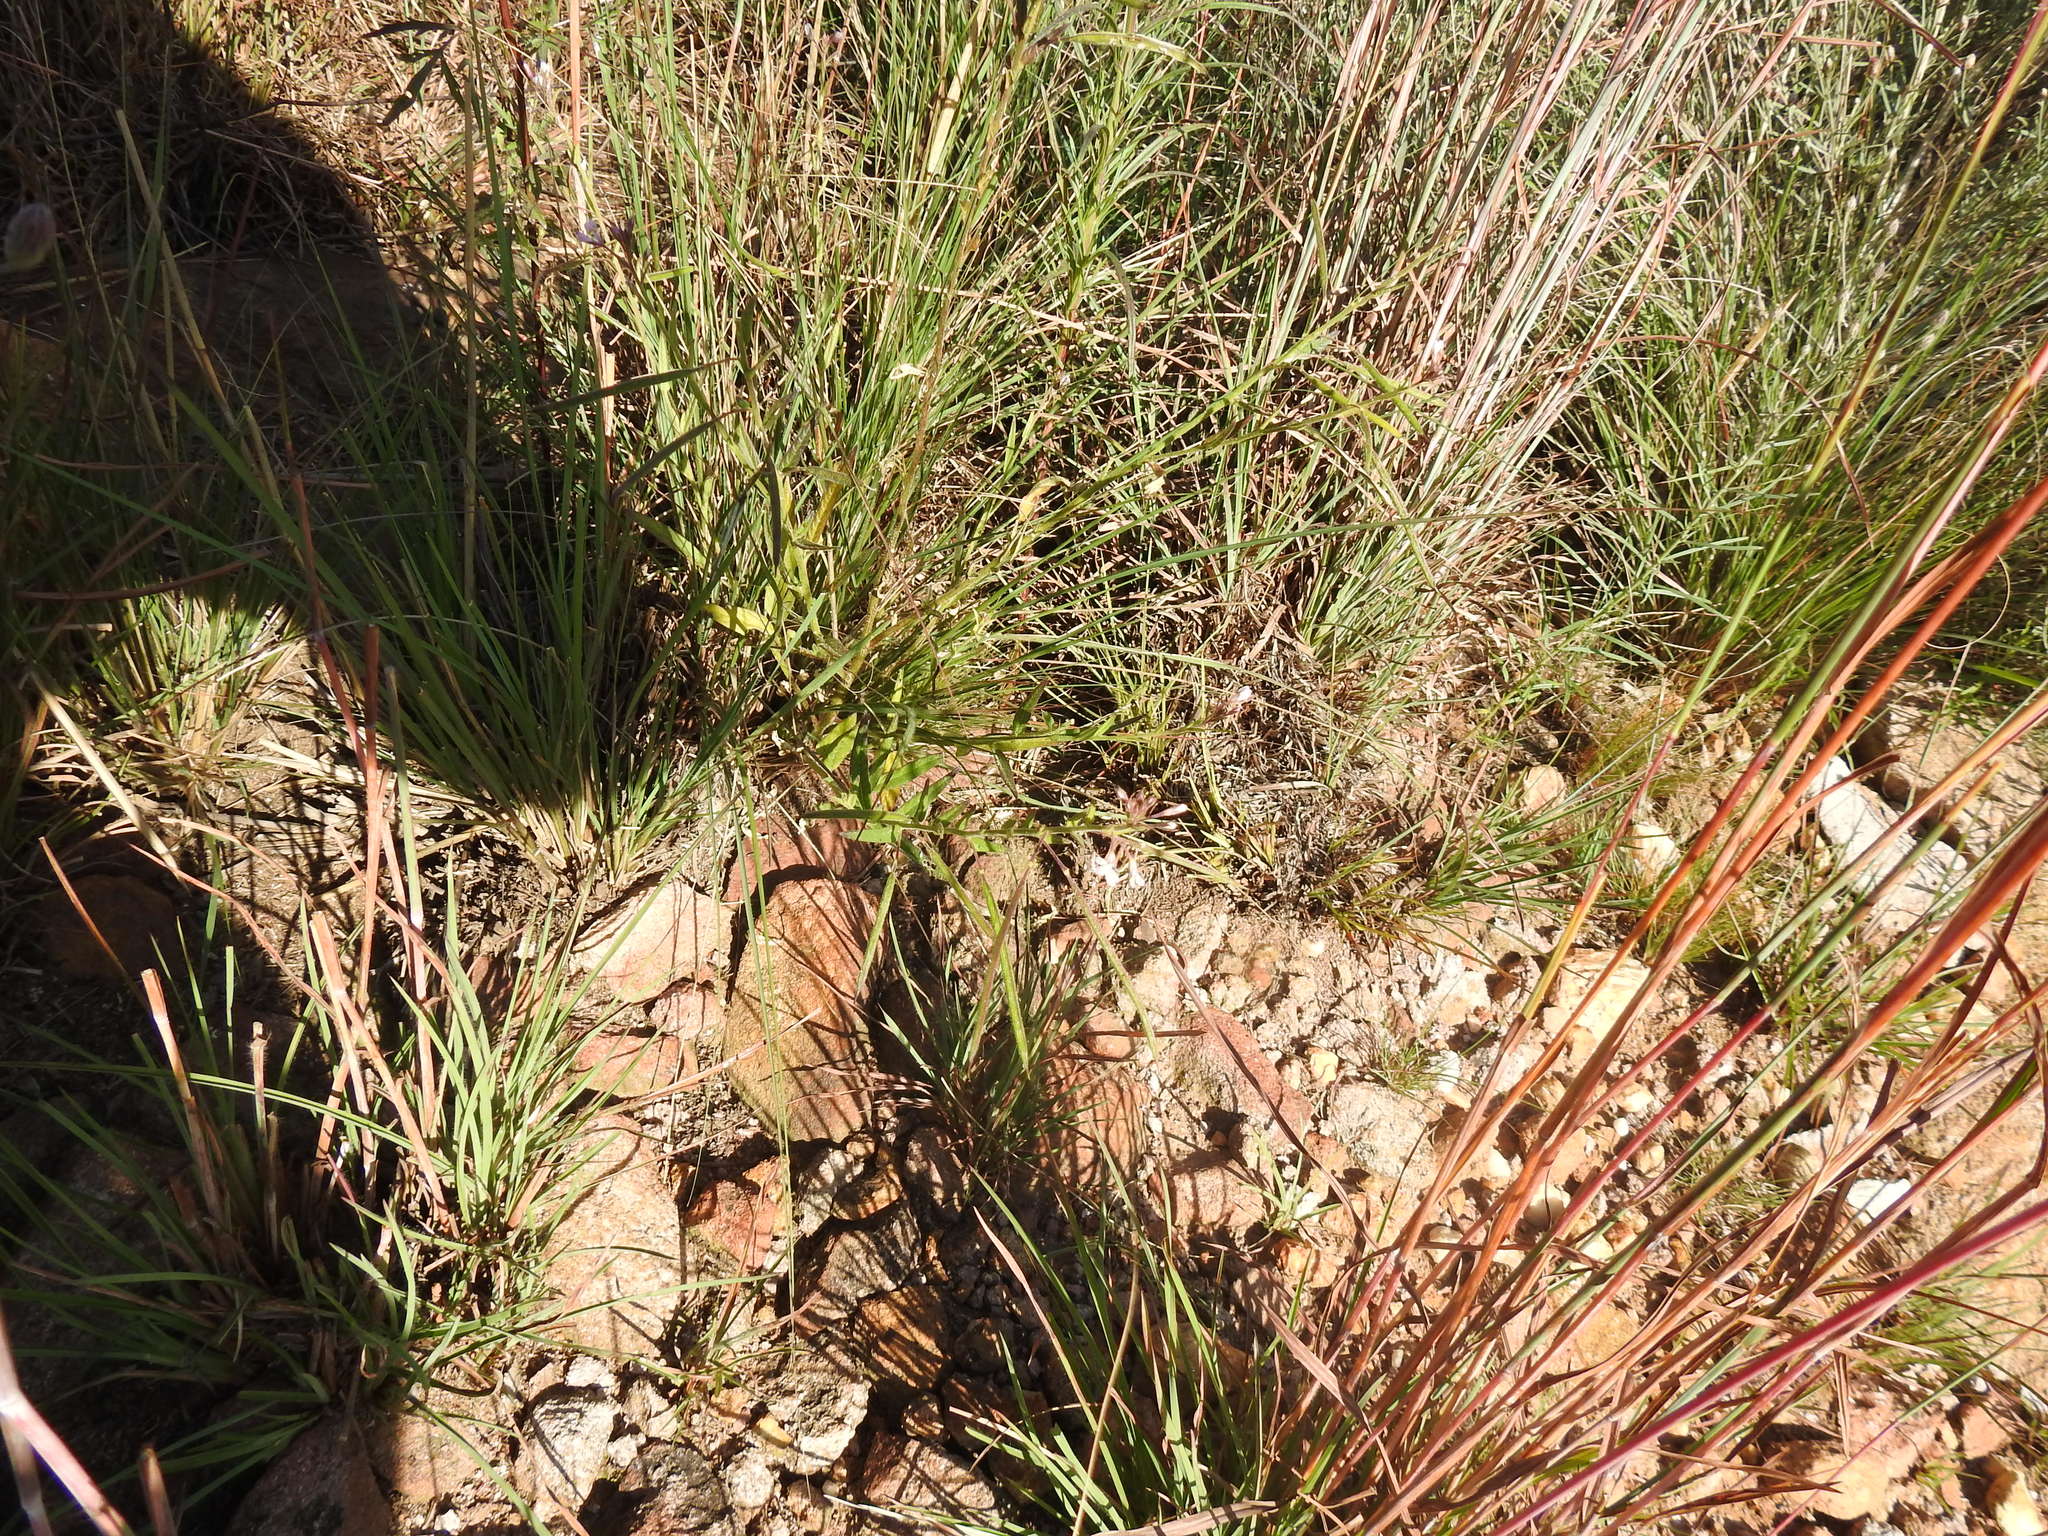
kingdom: Plantae
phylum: Tracheophyta
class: Magnoliopsida
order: Brassicales
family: Cleomaceae
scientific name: Cleomaceae
